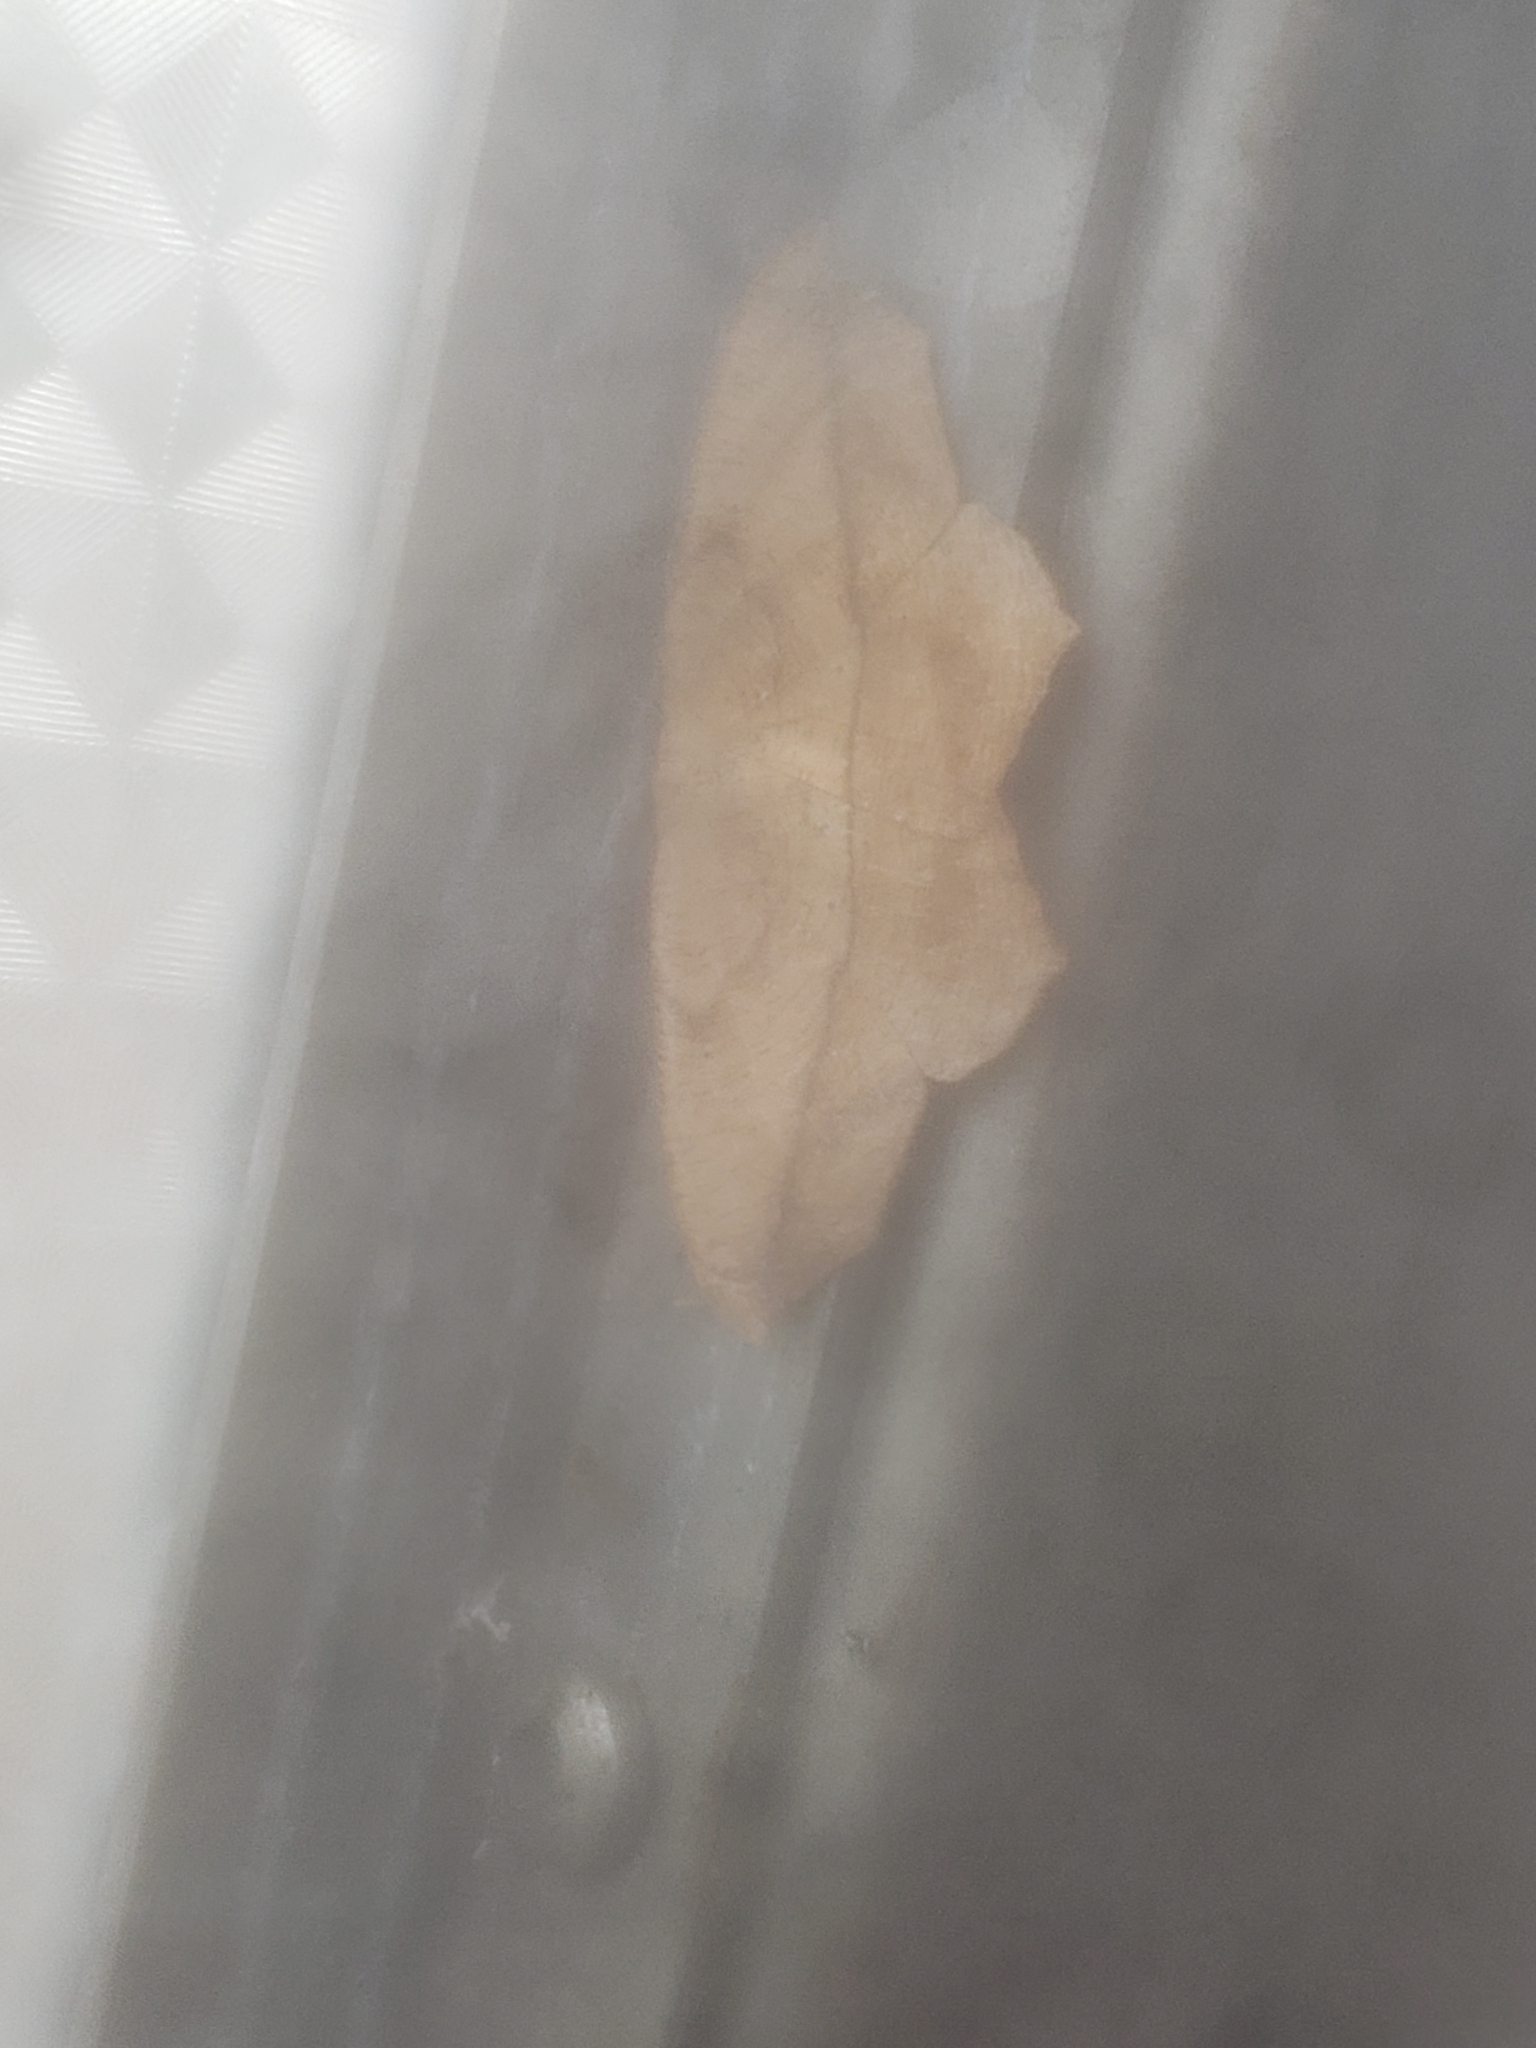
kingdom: Animalia
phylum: Arthropoda
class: Insecta
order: Lepidoptera
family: Geometridae
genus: Prochoerodes
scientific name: Prochoerodes lineola
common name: Large maple spanworm
